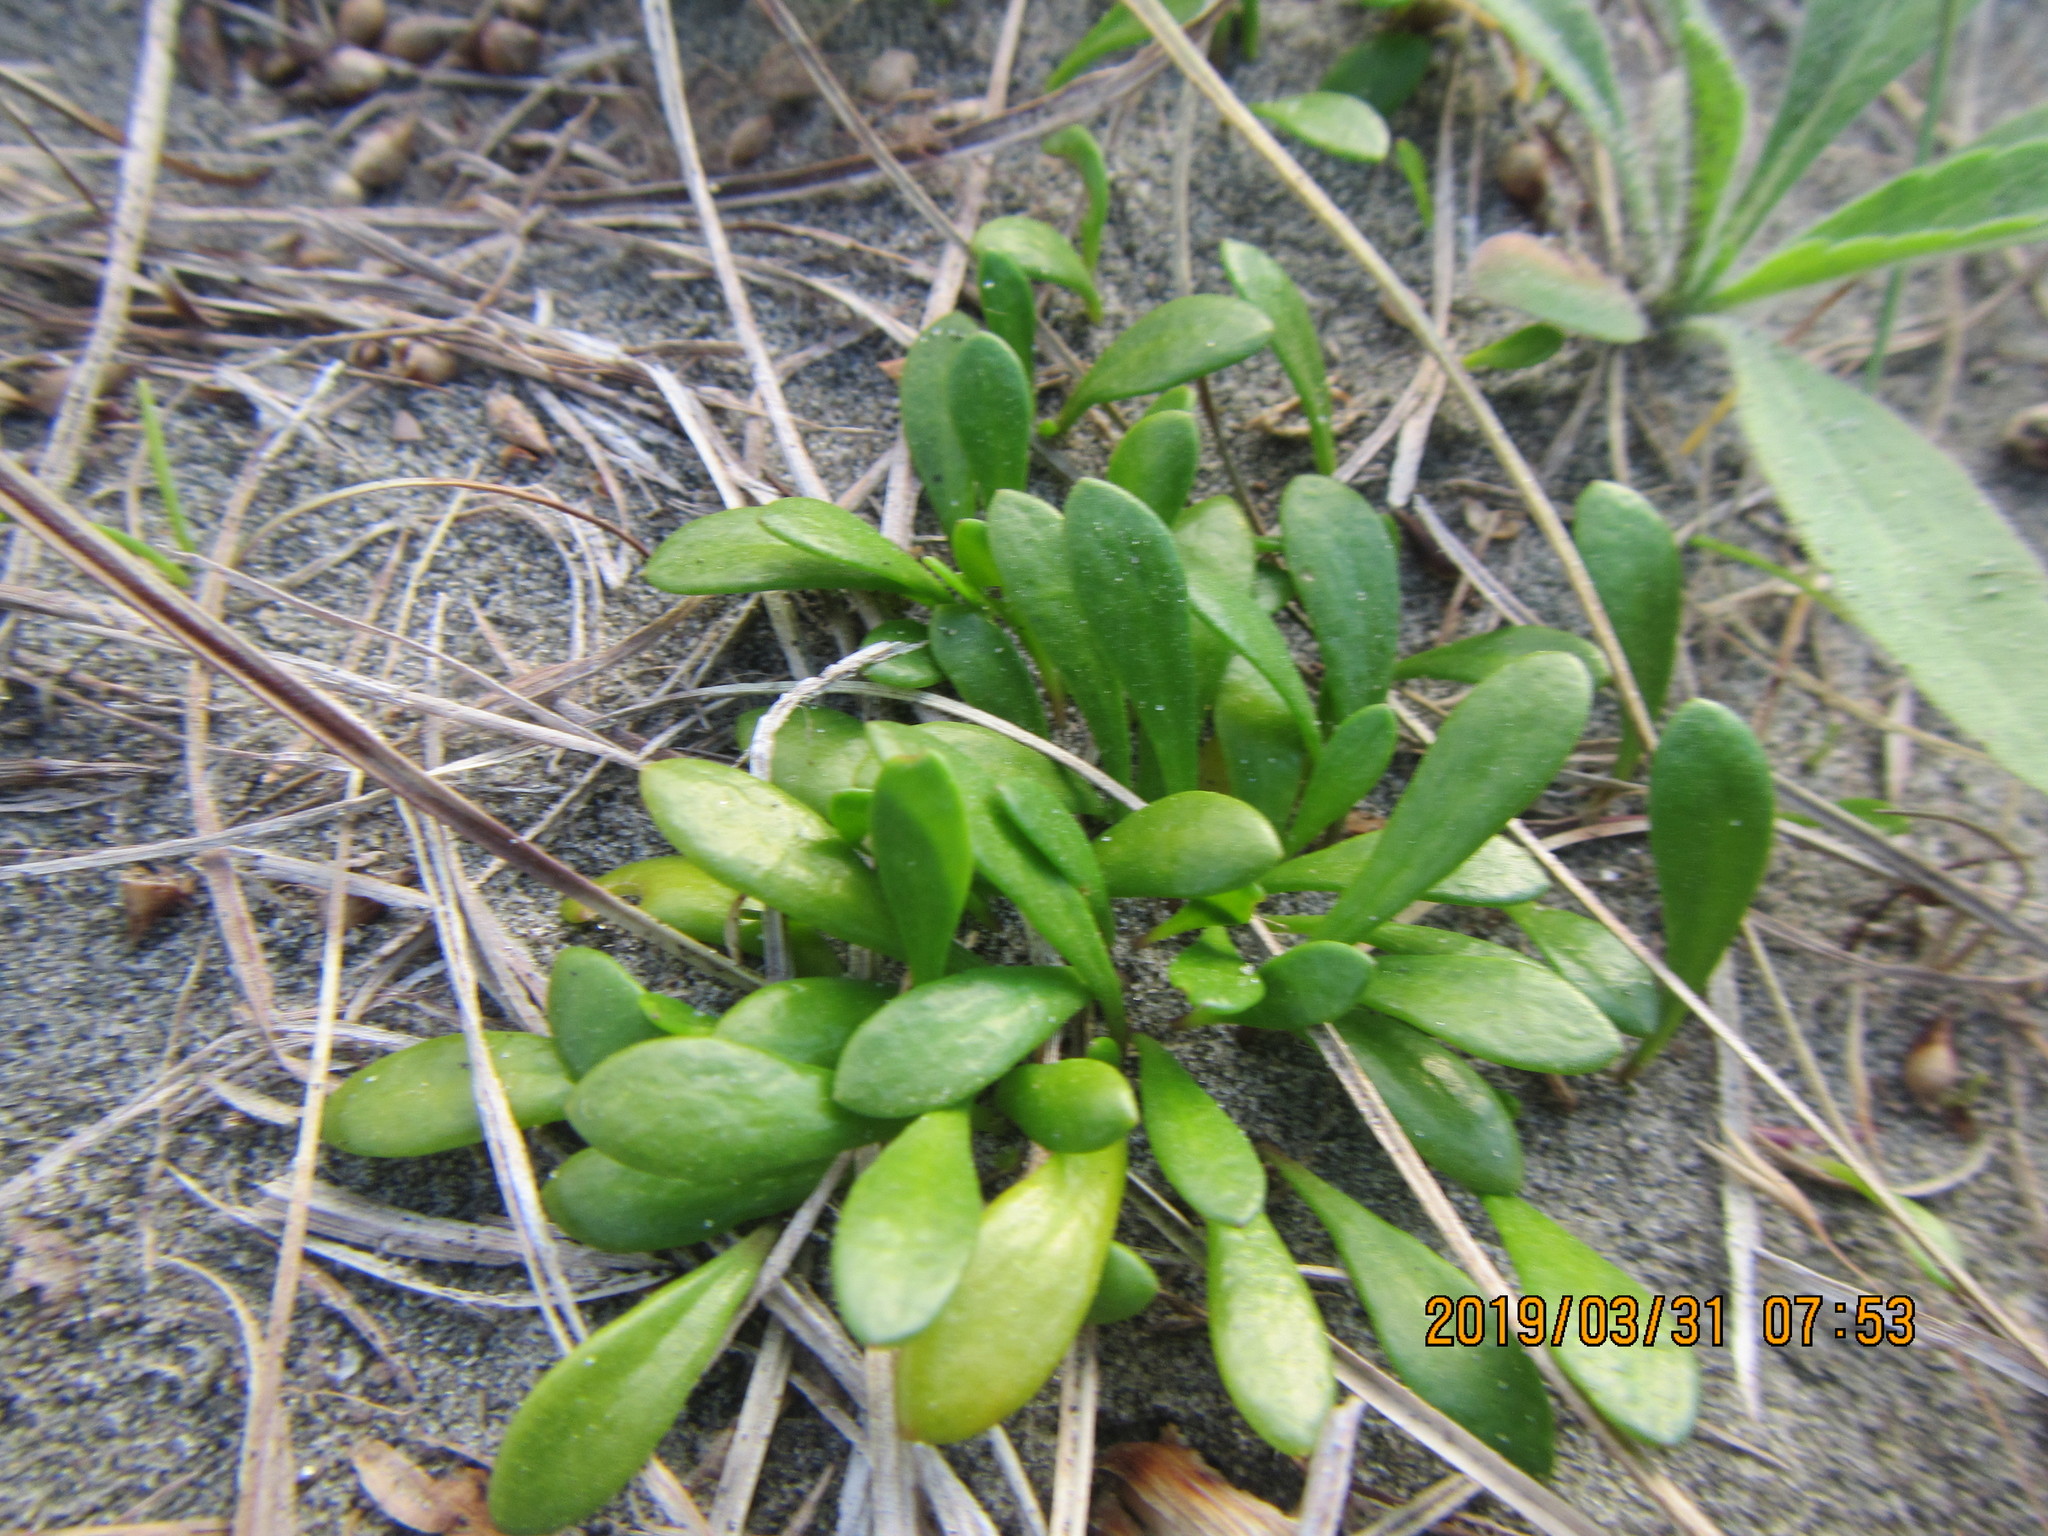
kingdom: Plantae
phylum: Tracheophyta
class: Magnoliopsida
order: Asterales
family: Goodeniaceae
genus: Goodenia
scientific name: Goodenia radicans
